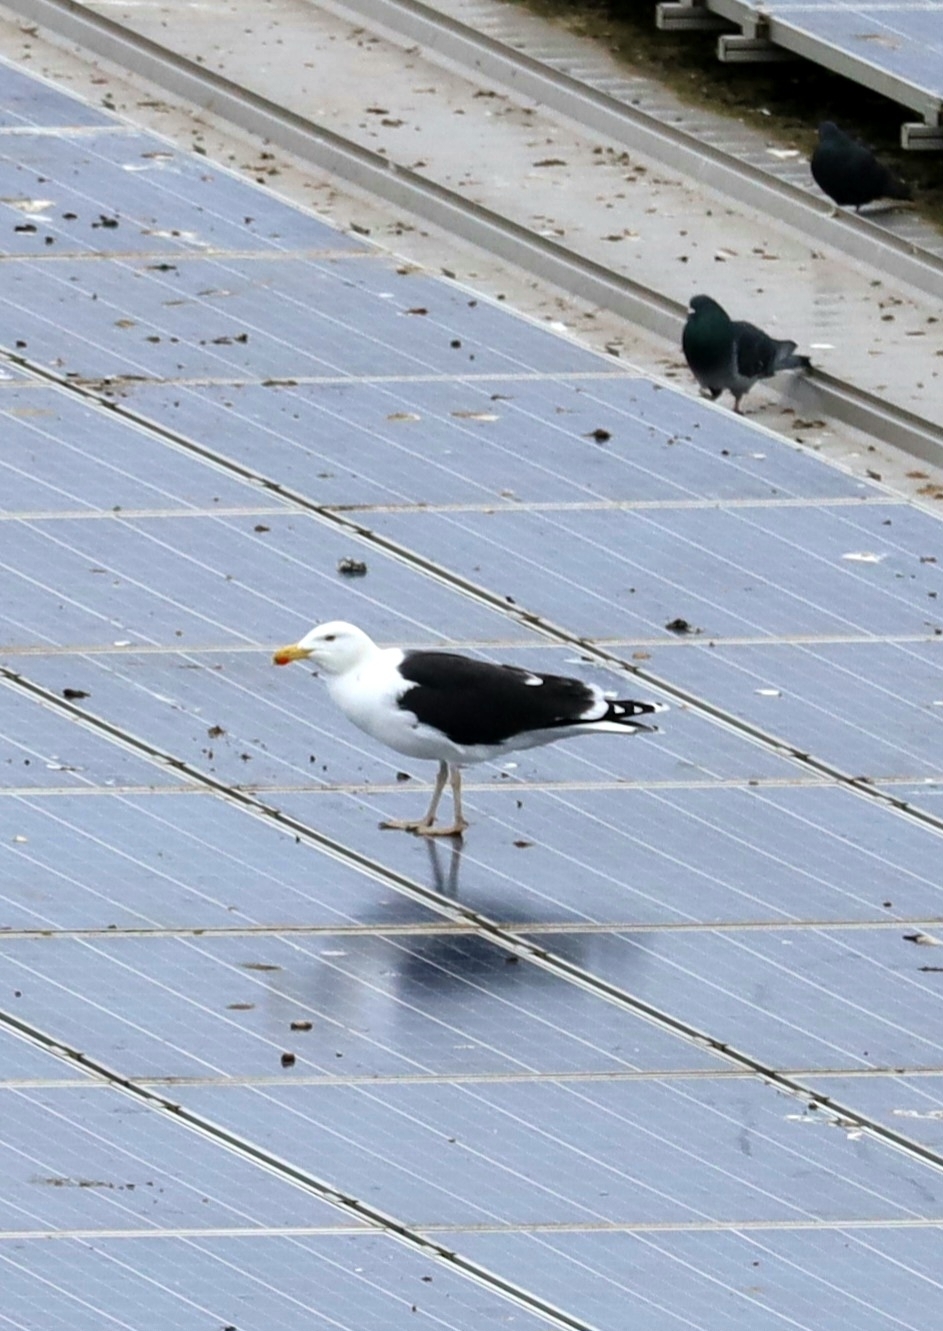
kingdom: Animalia
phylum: Chordata
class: Aves
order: Charadriiformes
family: Laridae
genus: Larus
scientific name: Larus marinus
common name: Great black-backed gull
